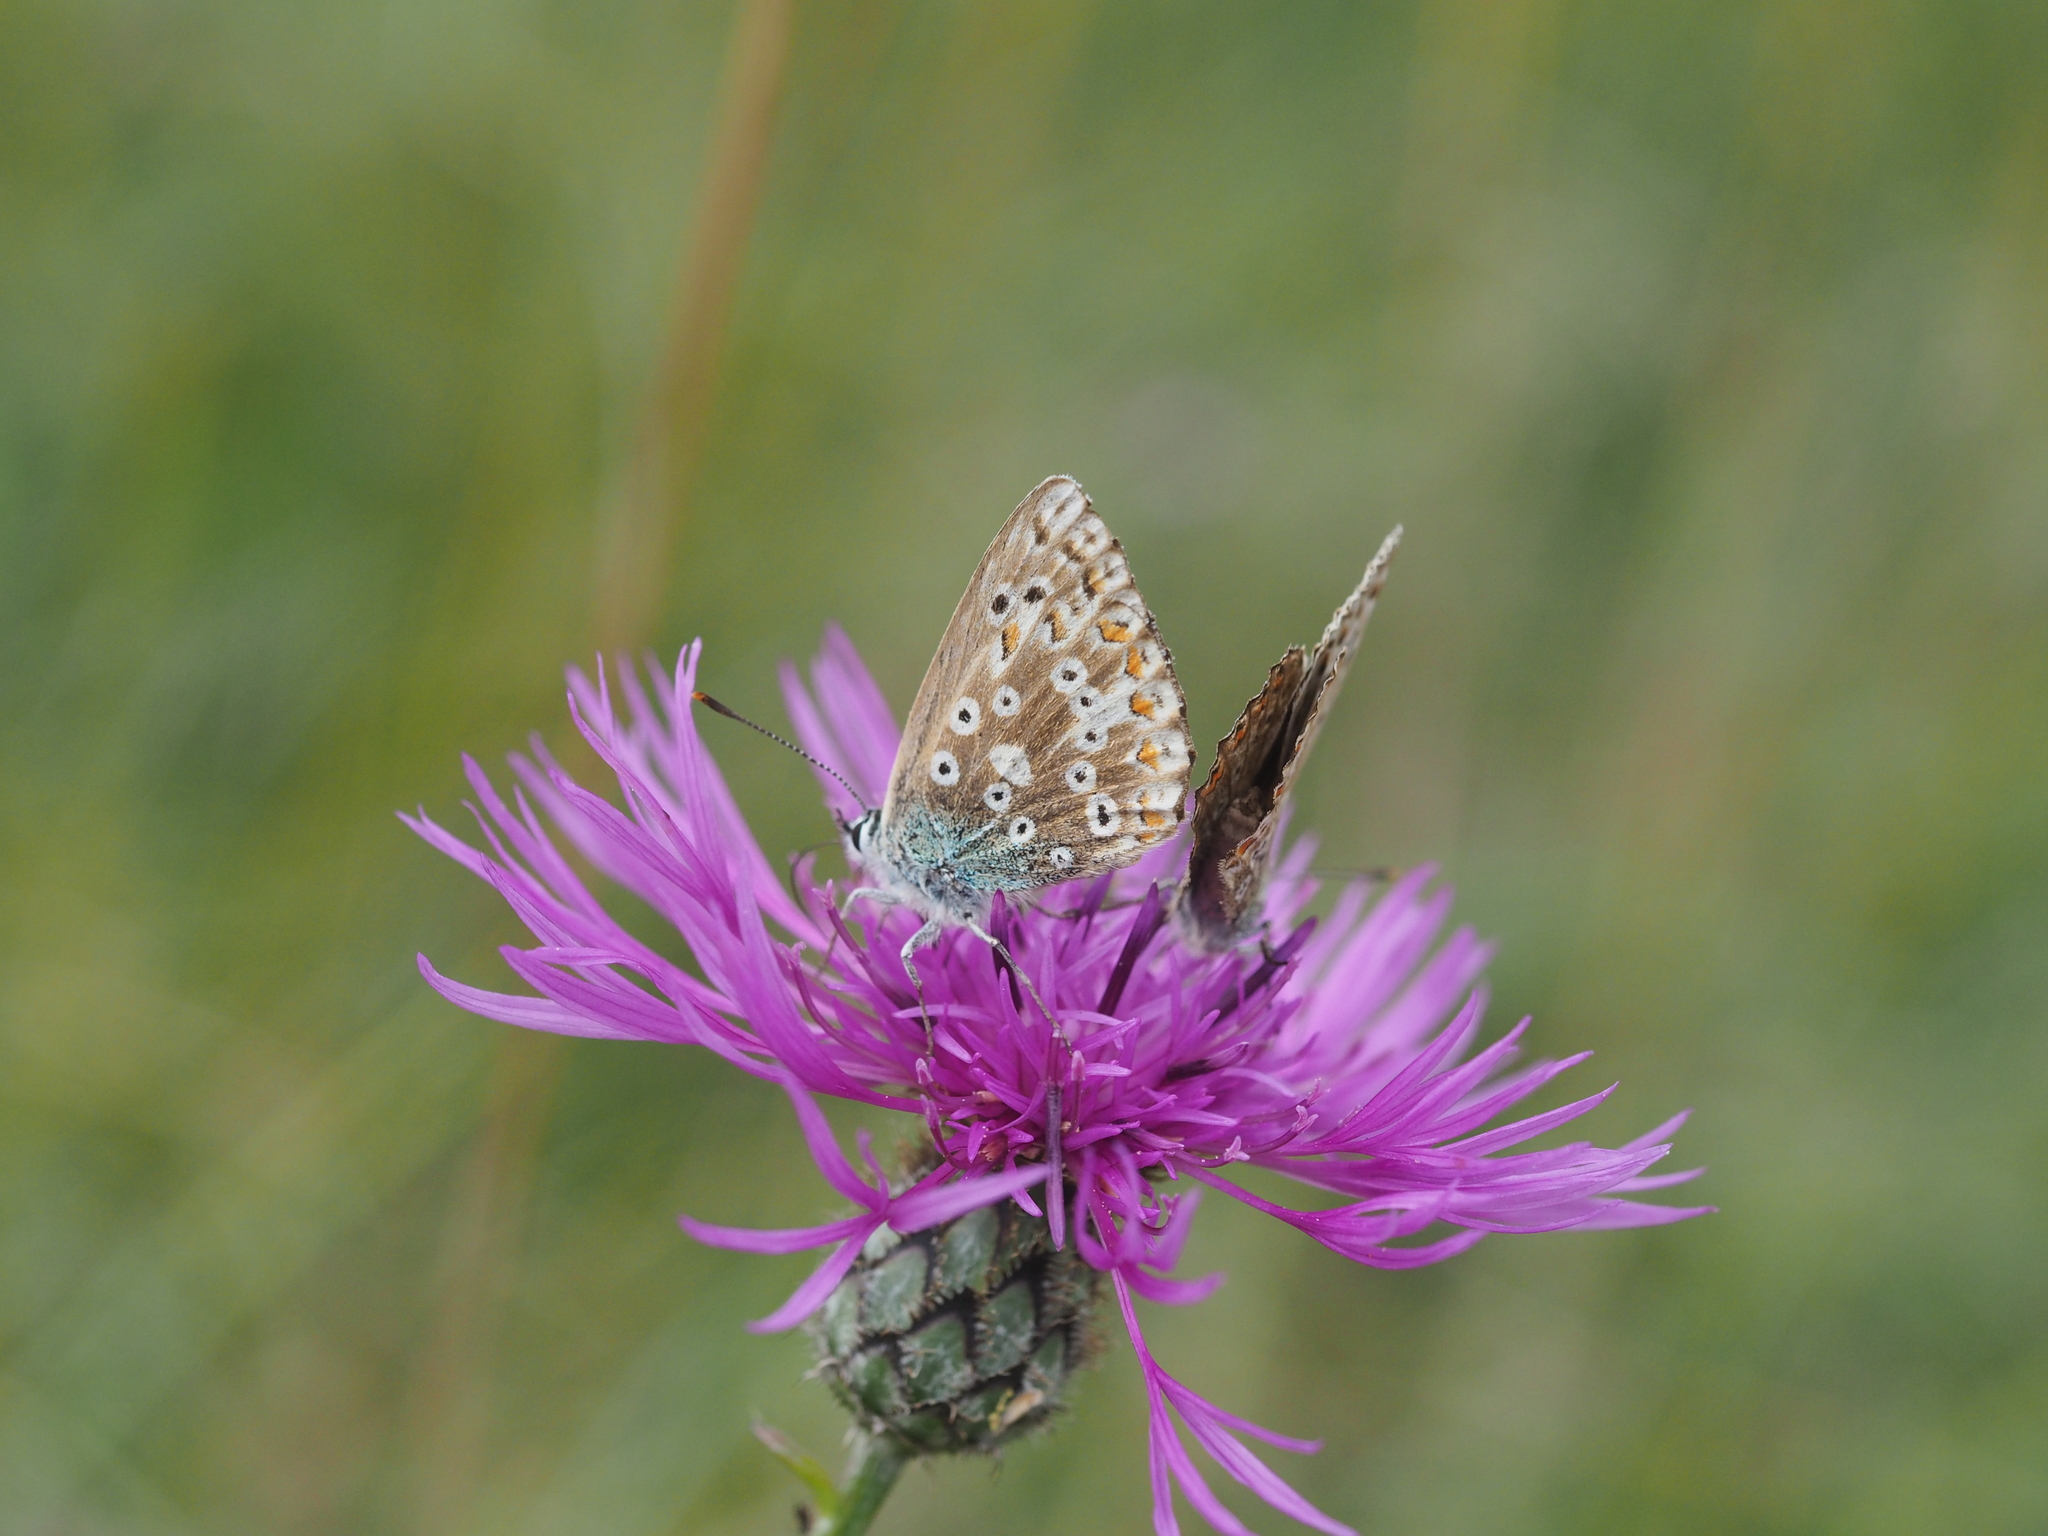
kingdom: Animalia
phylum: Arthropoda
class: Insecta
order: Lepidoptera
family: Lycaenidae
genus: Lysandra
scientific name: Lysandra coridon
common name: Chalkhill blue
